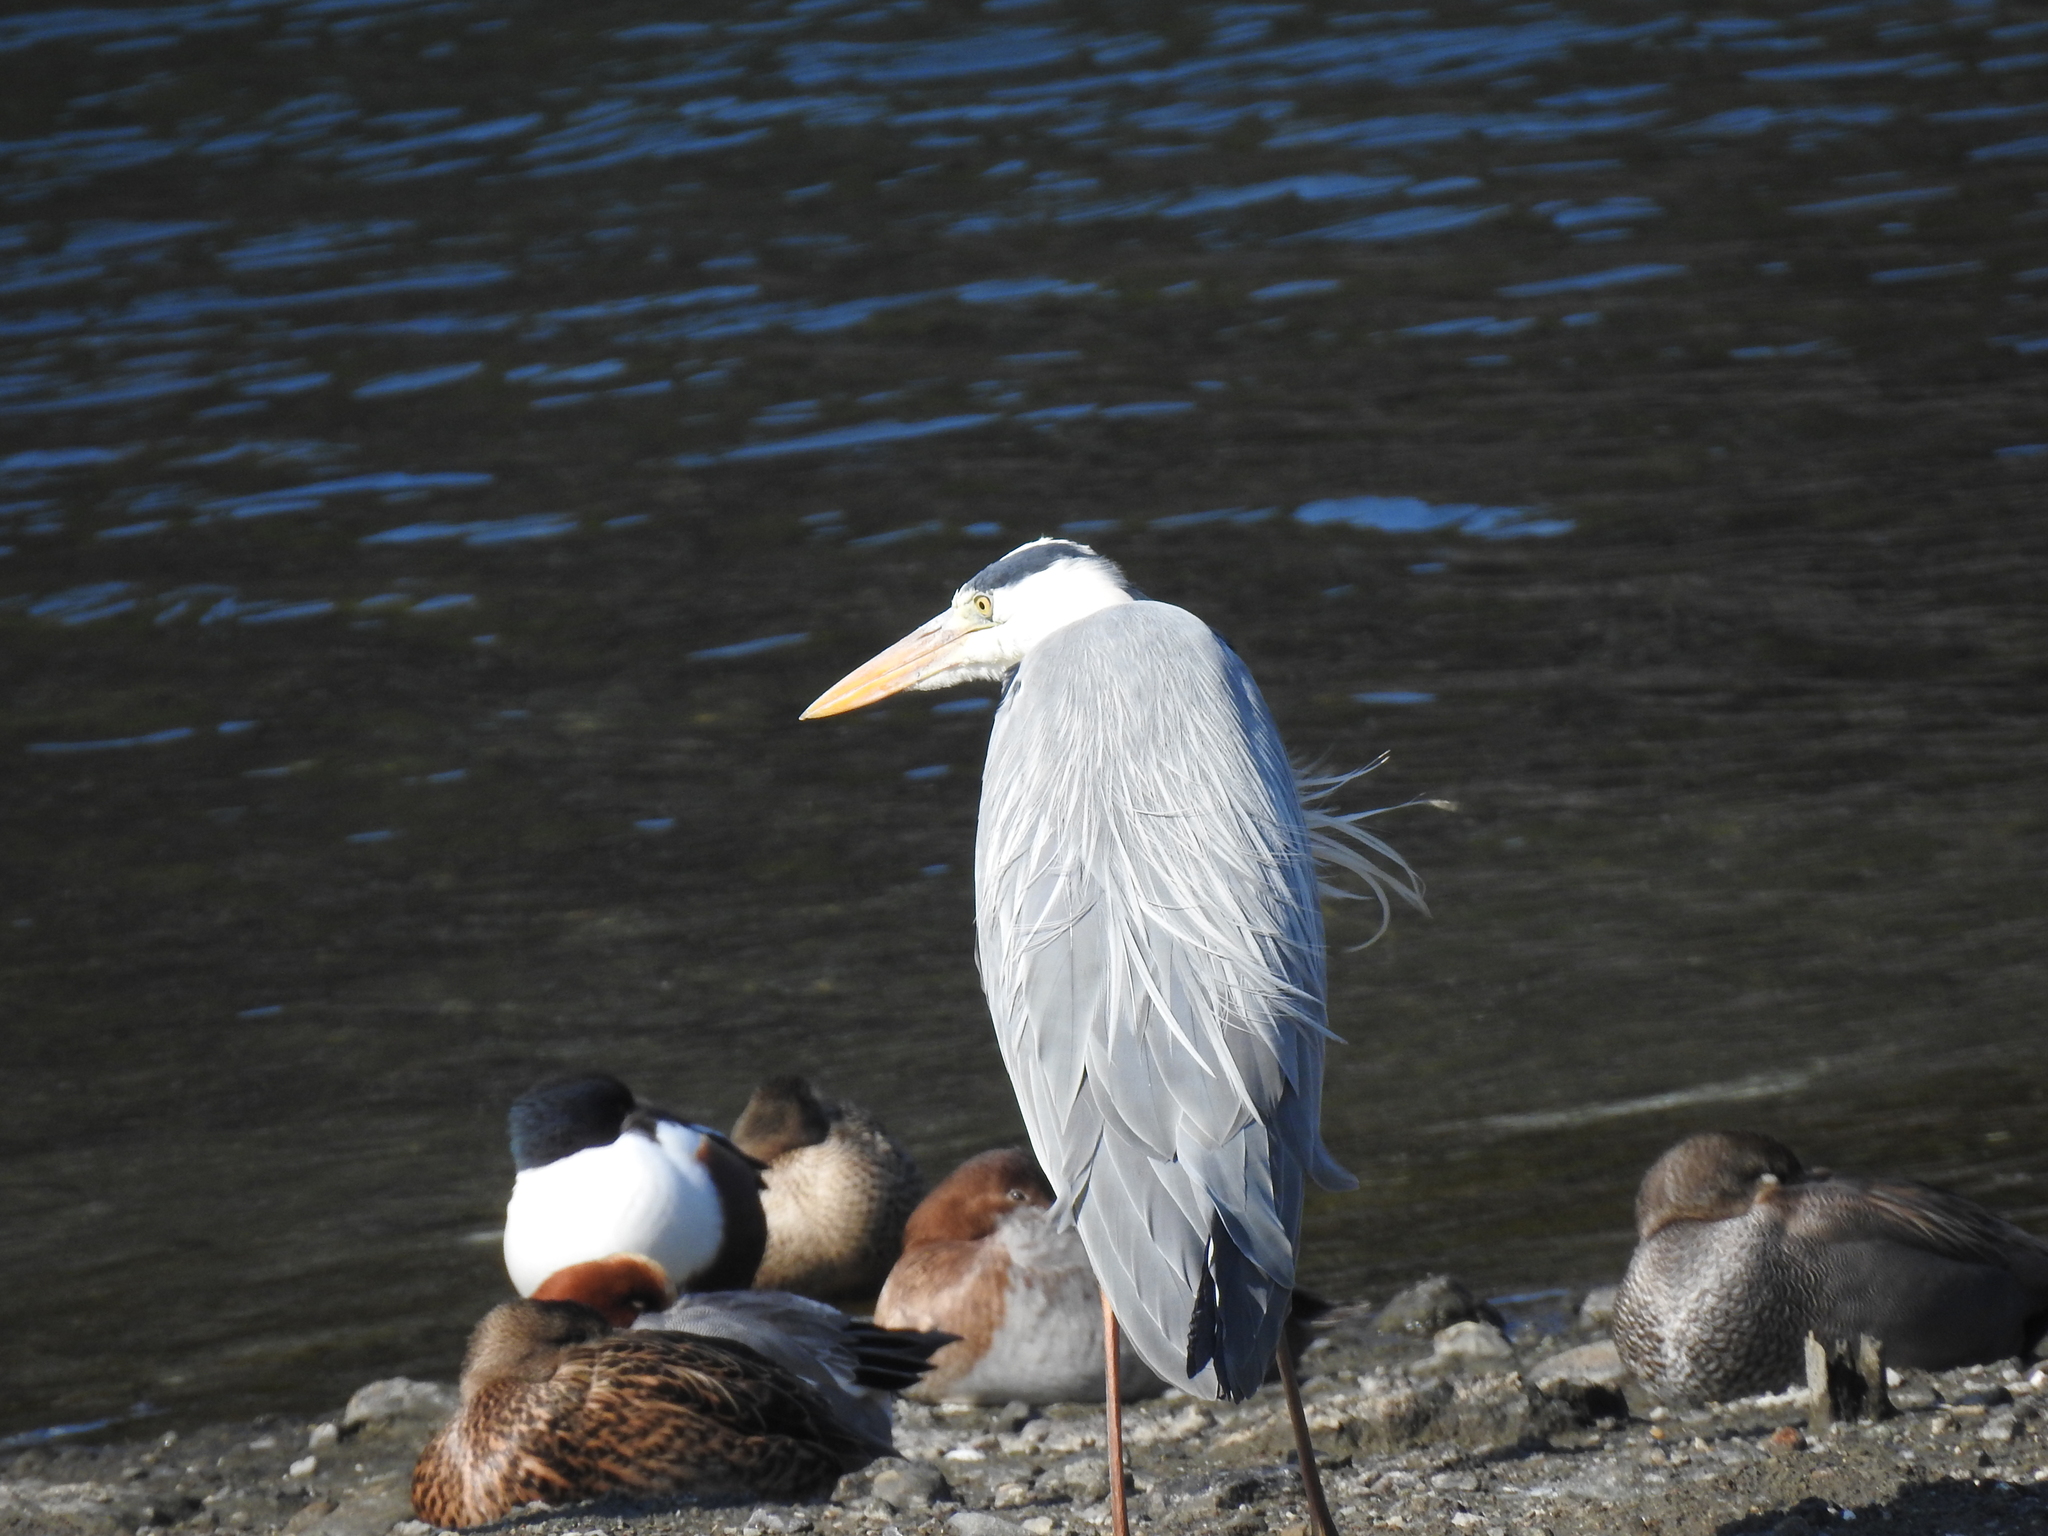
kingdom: Animalia
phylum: Chordata
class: Aves
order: Pelecaniformes
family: Ardeidae
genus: Ardea
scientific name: Ardea cinerea
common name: Grey heron
